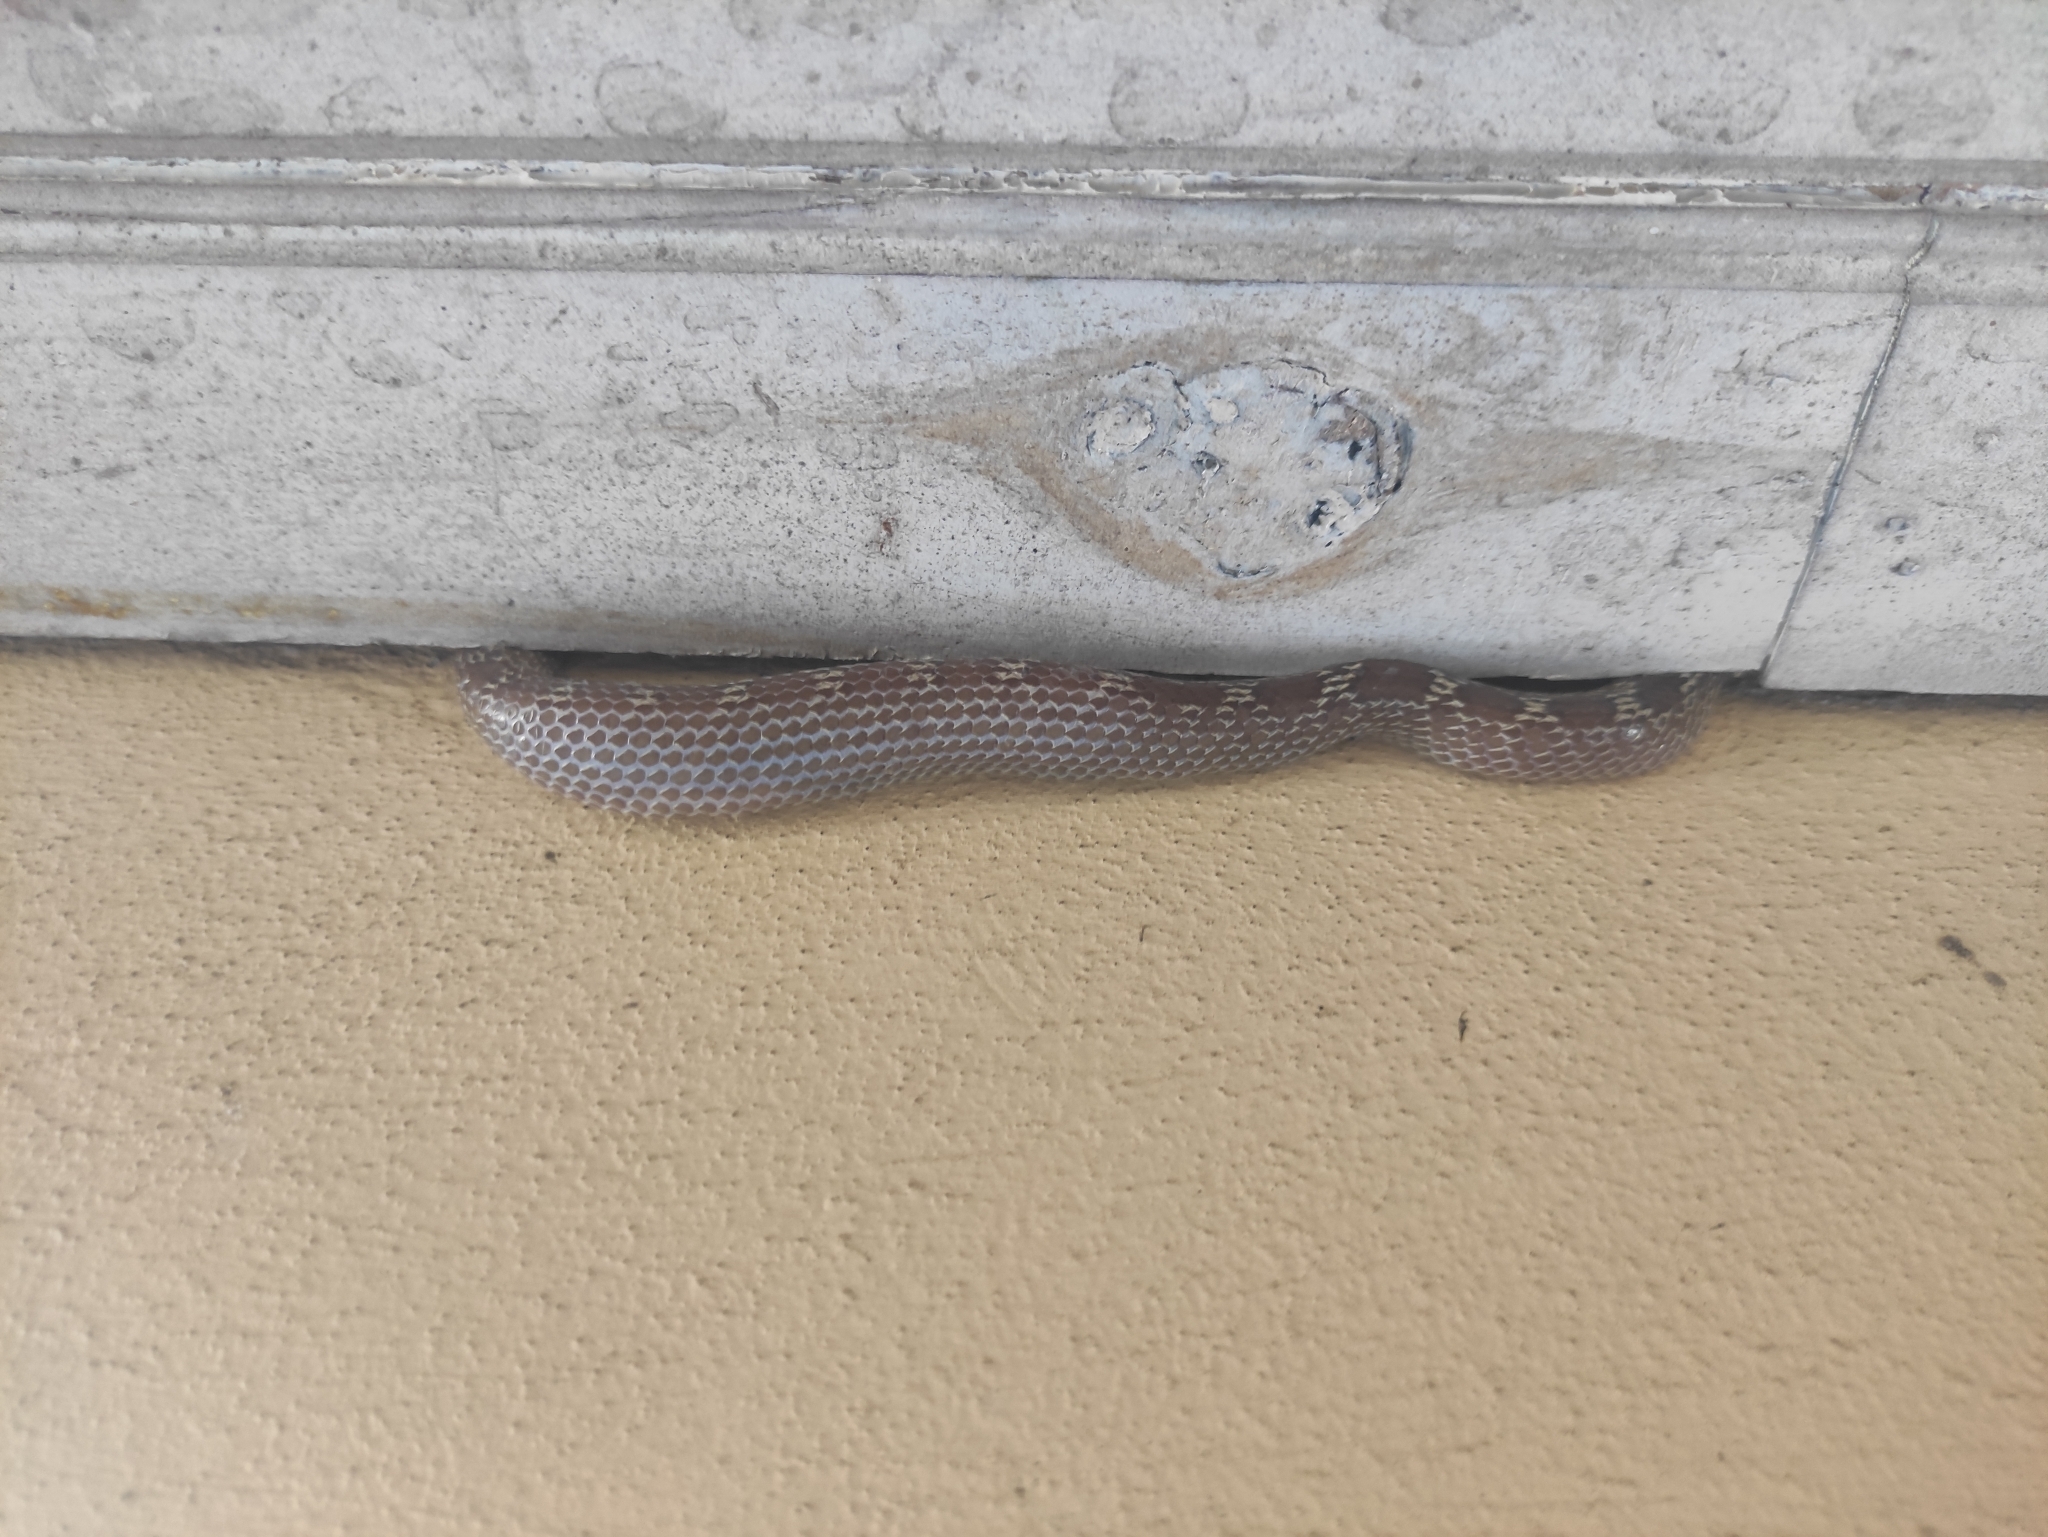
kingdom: Animalia
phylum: Chordata
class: Squamata
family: Colubridae
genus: Lycodon
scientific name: Lycodon aulicus
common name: Common wolf snake
